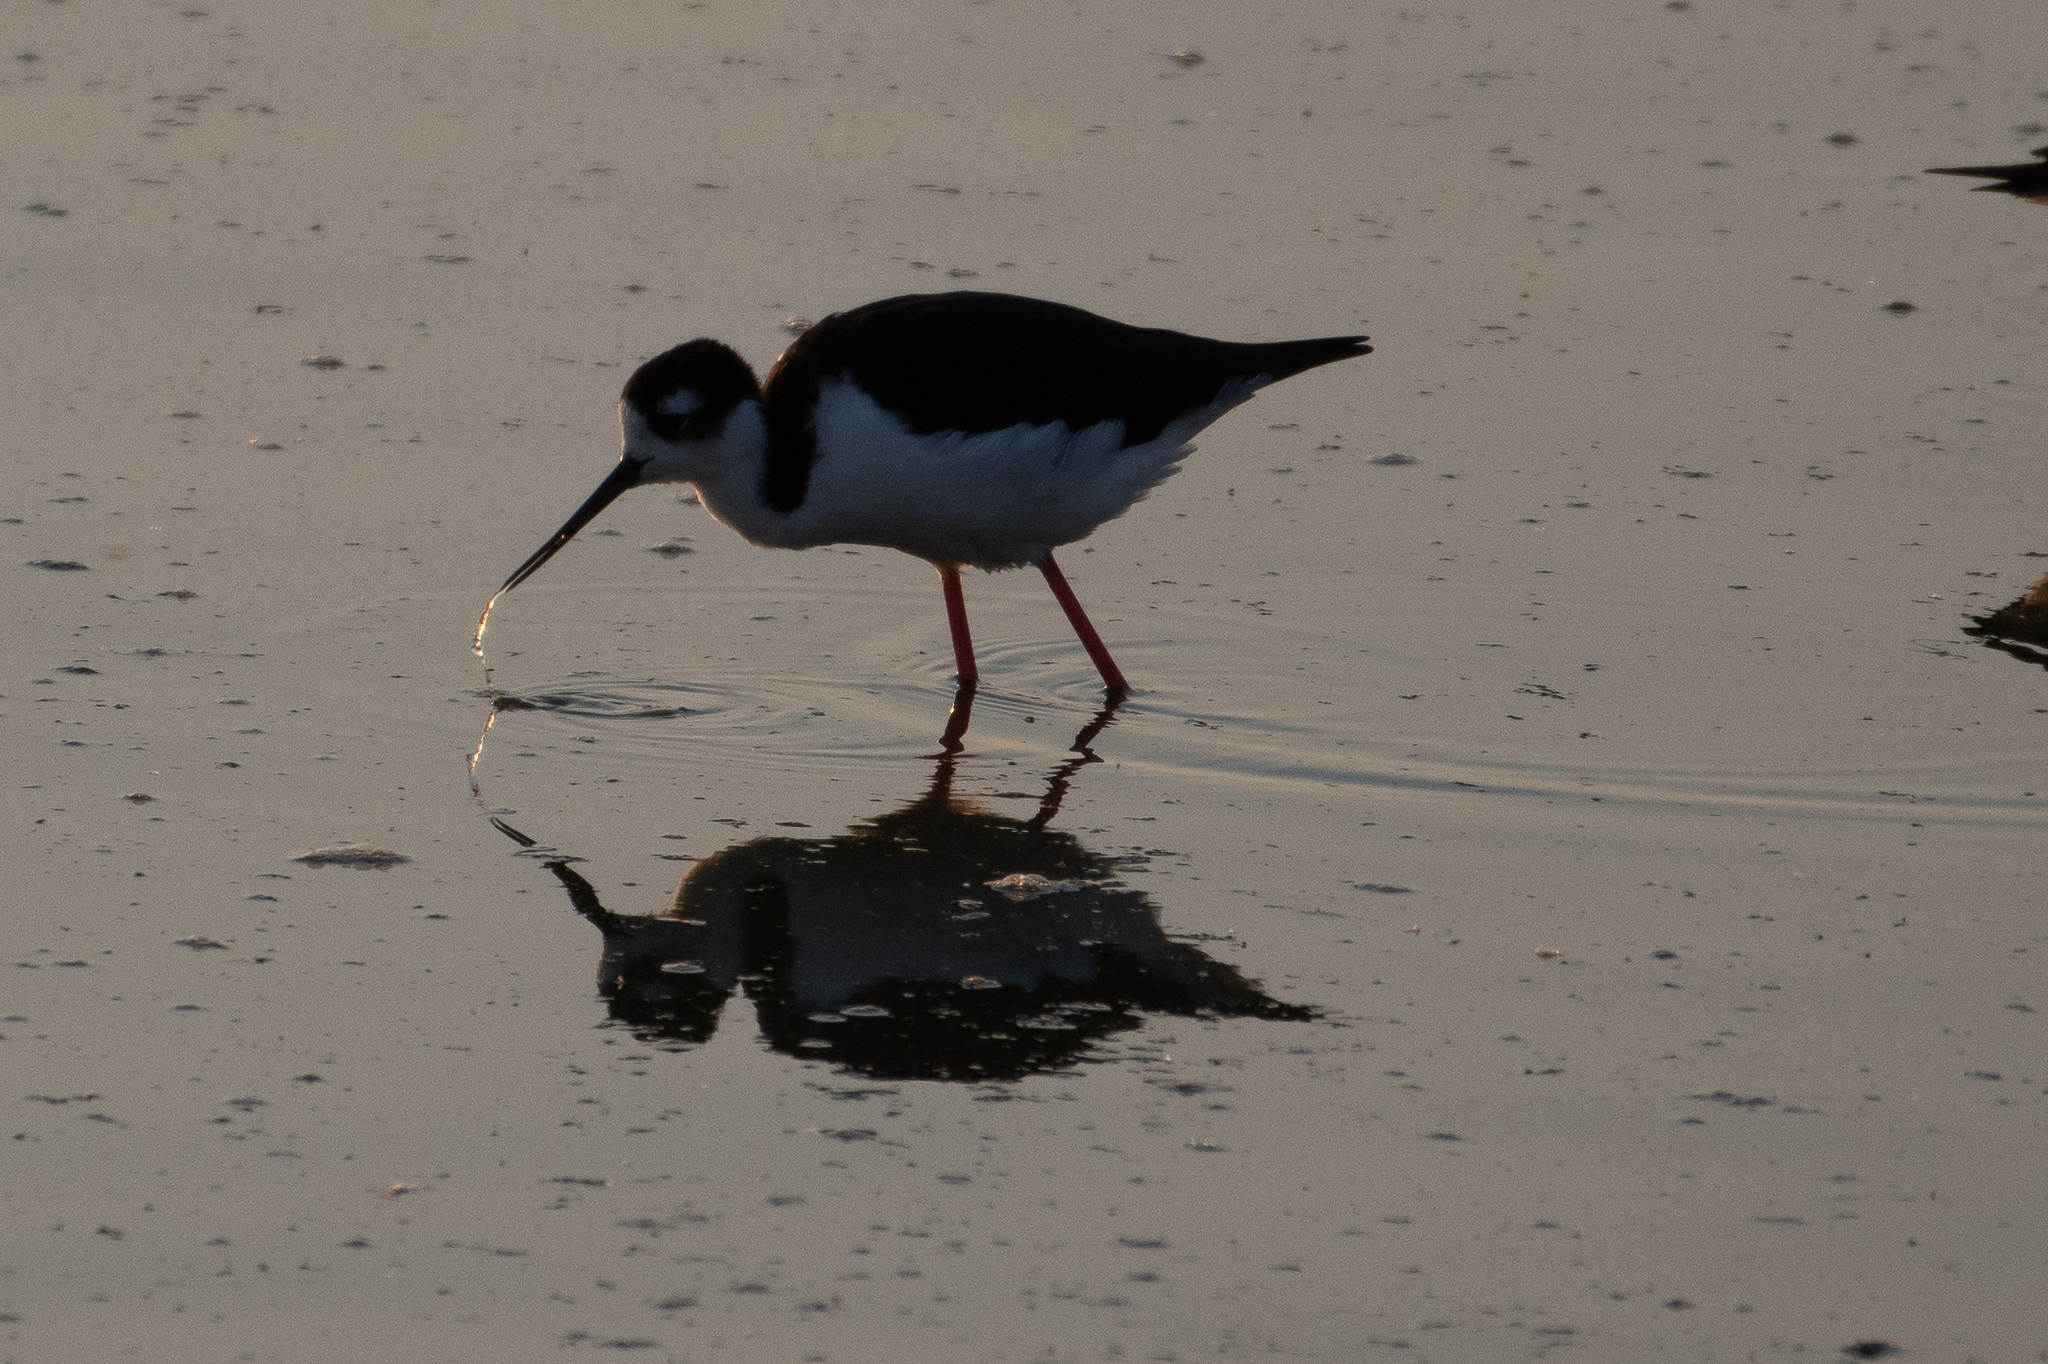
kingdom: Animalia
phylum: Chordata
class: Aves
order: Charadriiformes
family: Recurvirostridae
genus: Himantopus
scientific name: Himantopus mexicanus
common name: Black-necked stilt
